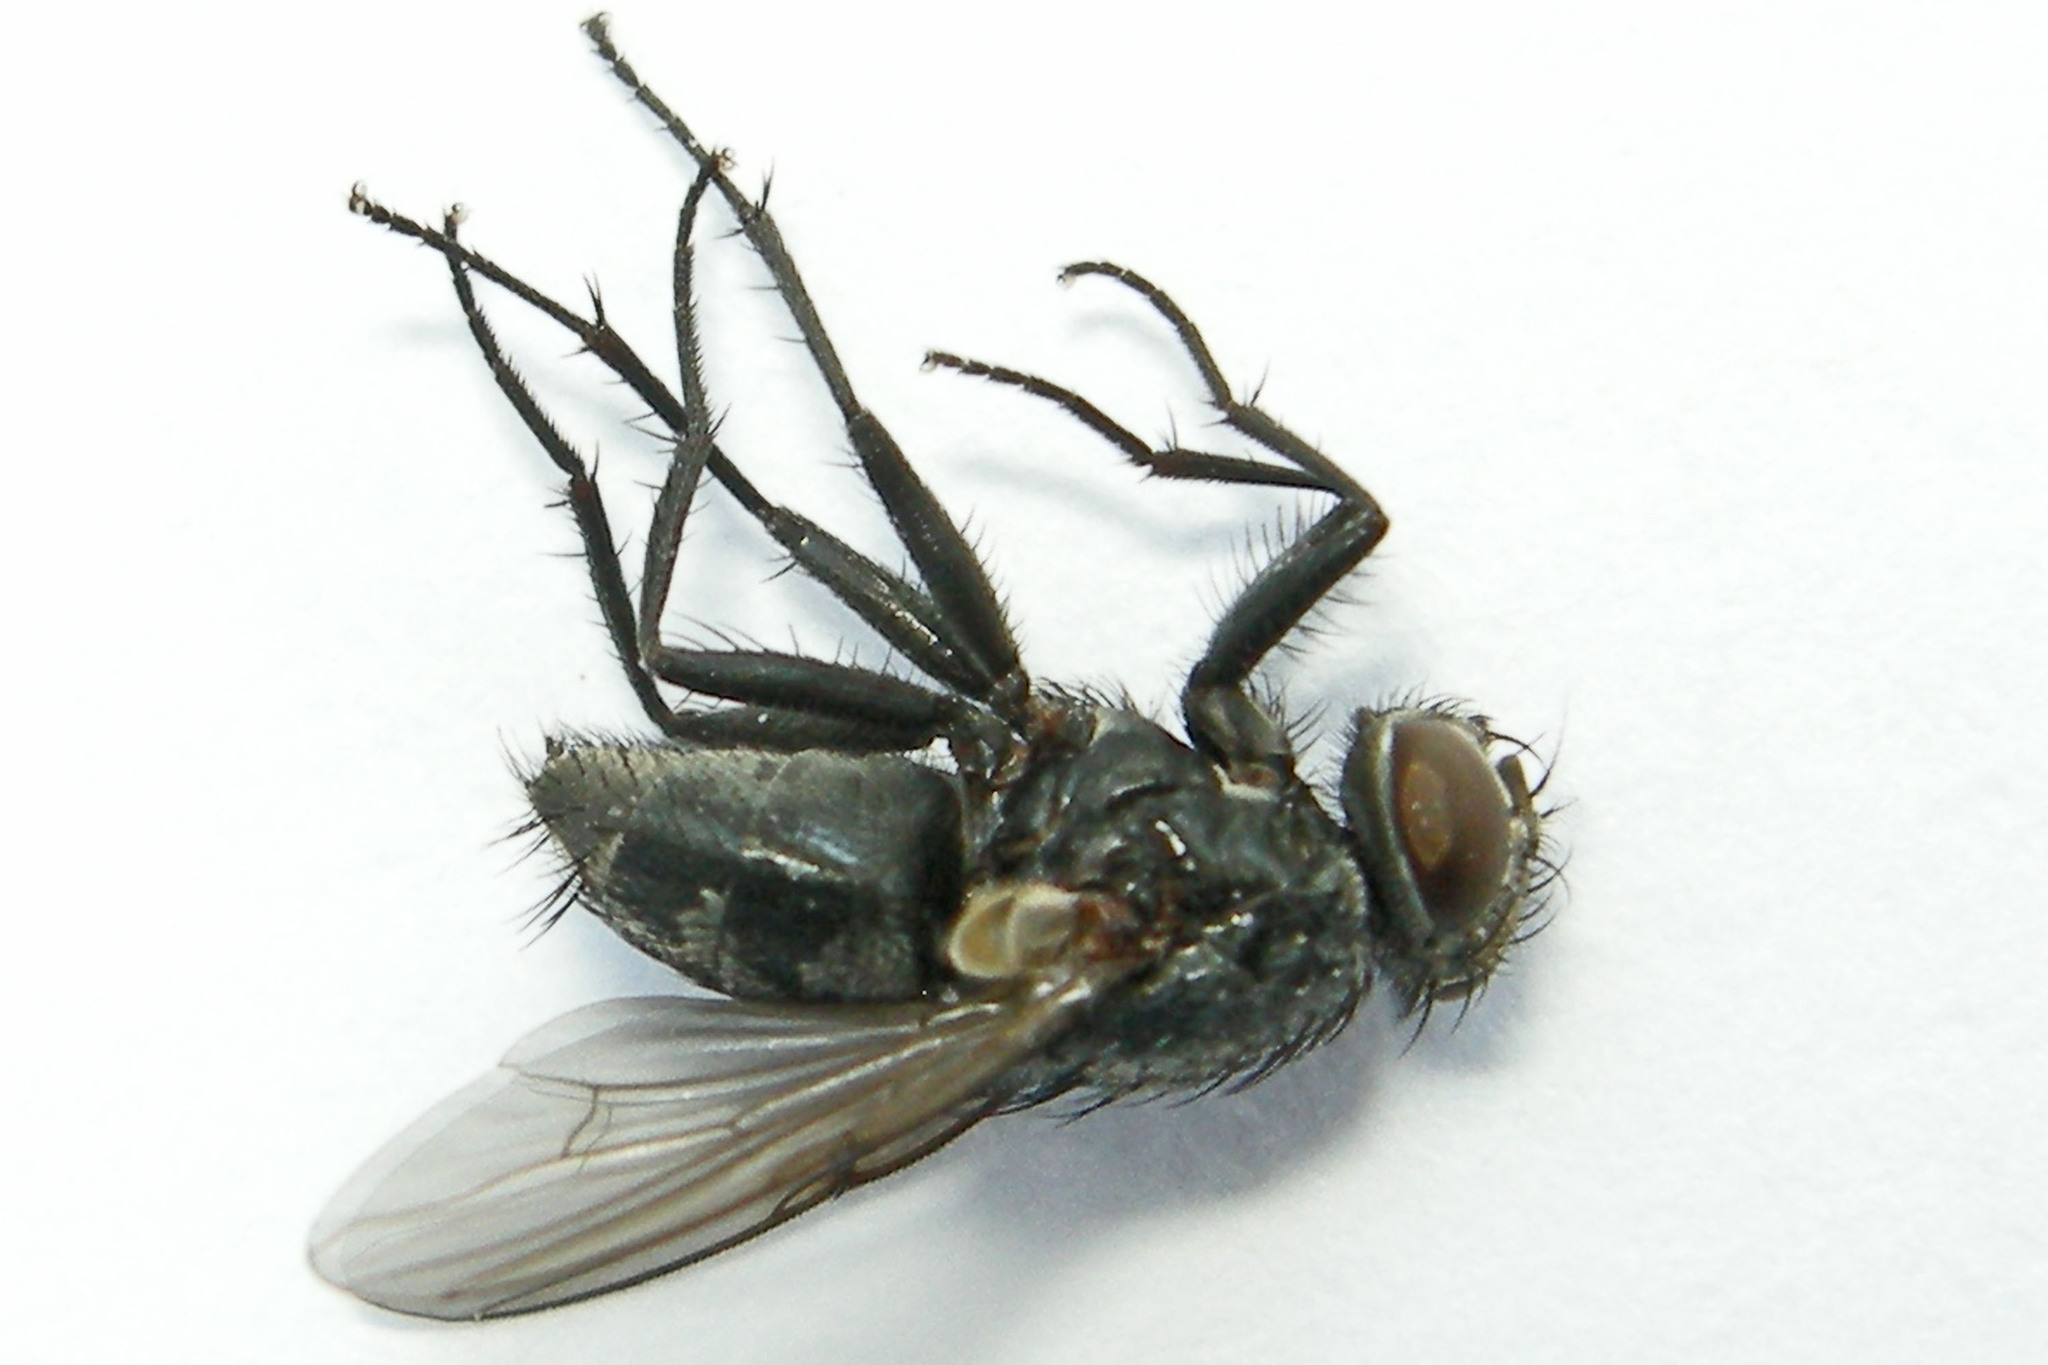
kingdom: Animalia
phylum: Arthropoda
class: Insecta
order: Diptera
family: Muscidae
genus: Muscina
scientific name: Muscina levida
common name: House fly
